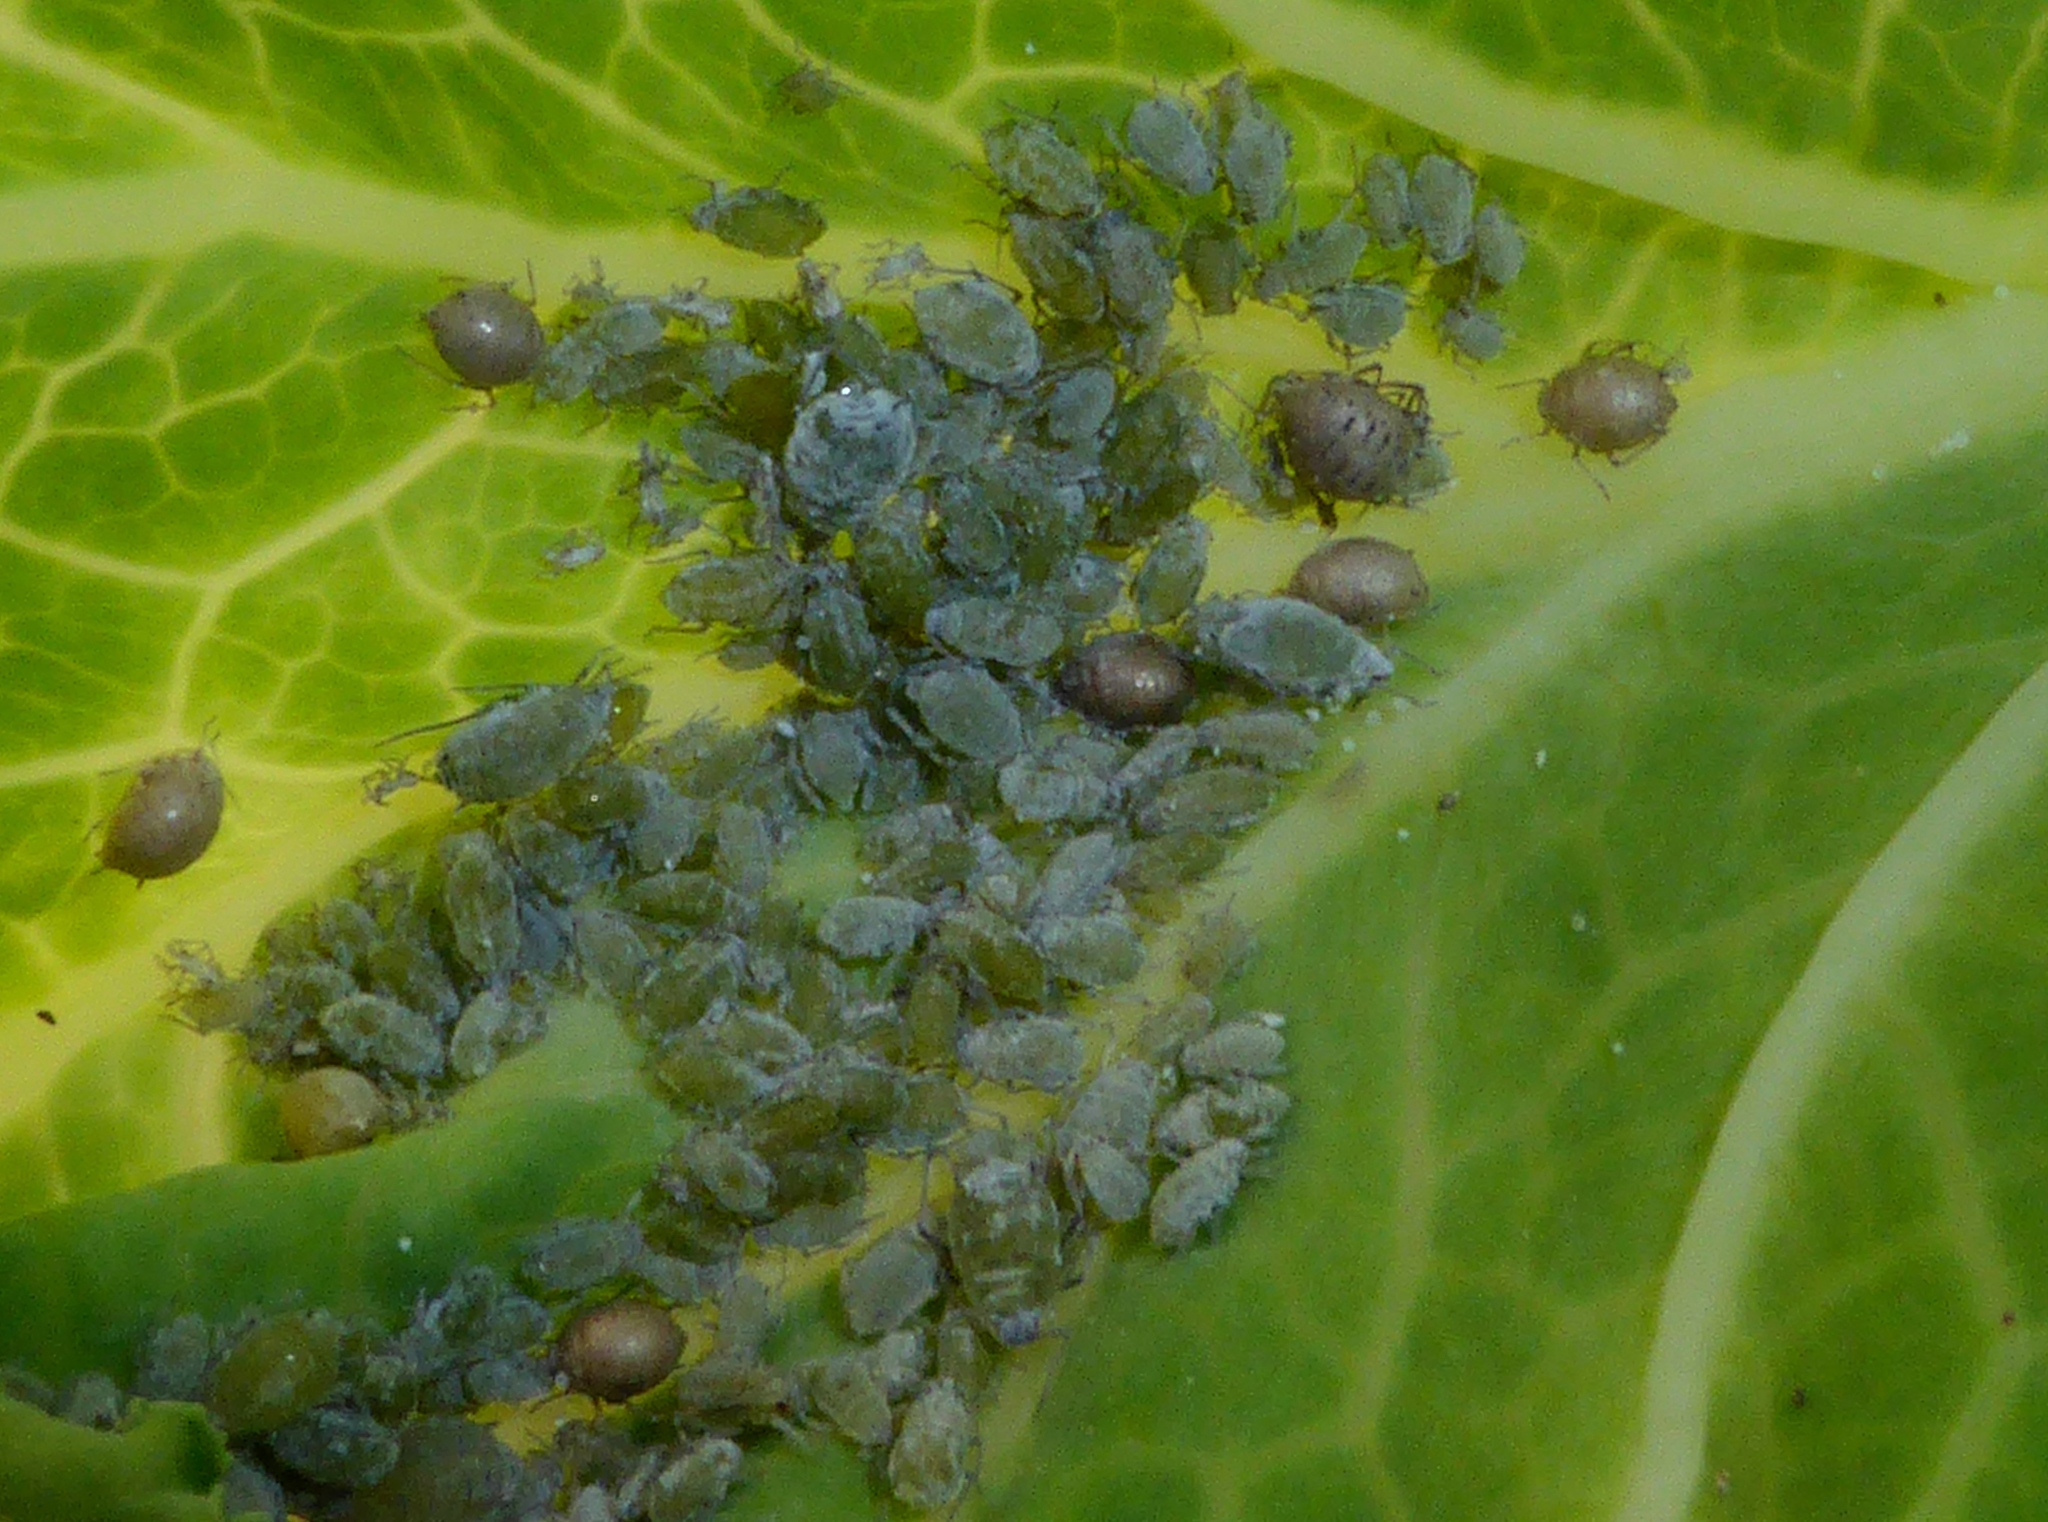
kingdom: Animalia
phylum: Arthropoda
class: Insecta
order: Hemiptera
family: Aphididae
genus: Brevicoryne
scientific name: Brevicoryne brassicae
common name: Cabbage aphid
